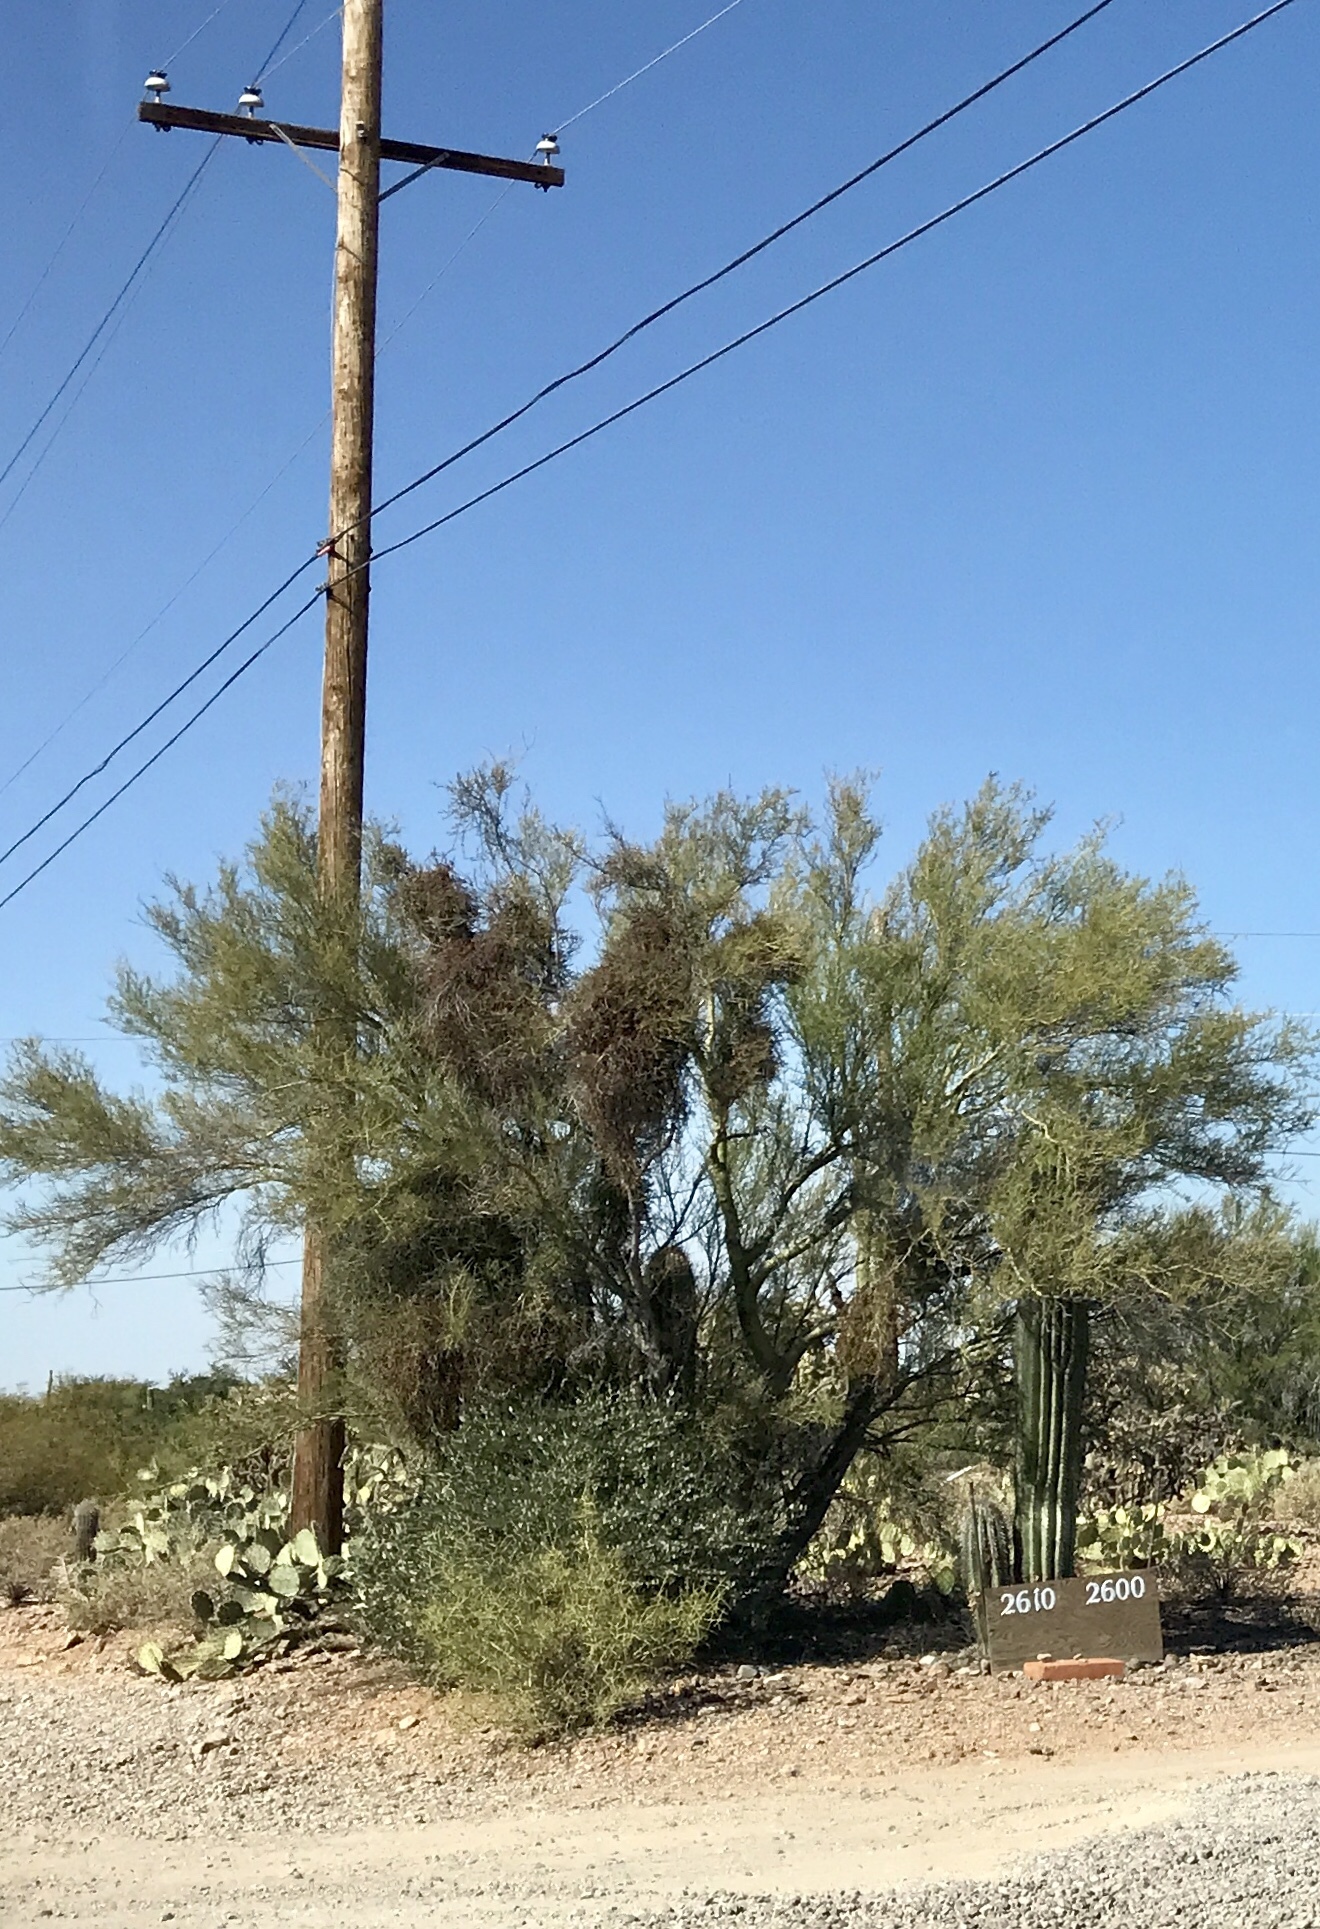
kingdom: Plantae
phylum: Tracheophyta
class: Magnoliopsida
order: Fabales
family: Fabaceae
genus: Parkinsonia
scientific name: Parkinsonia florida
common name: Blue paloverde
